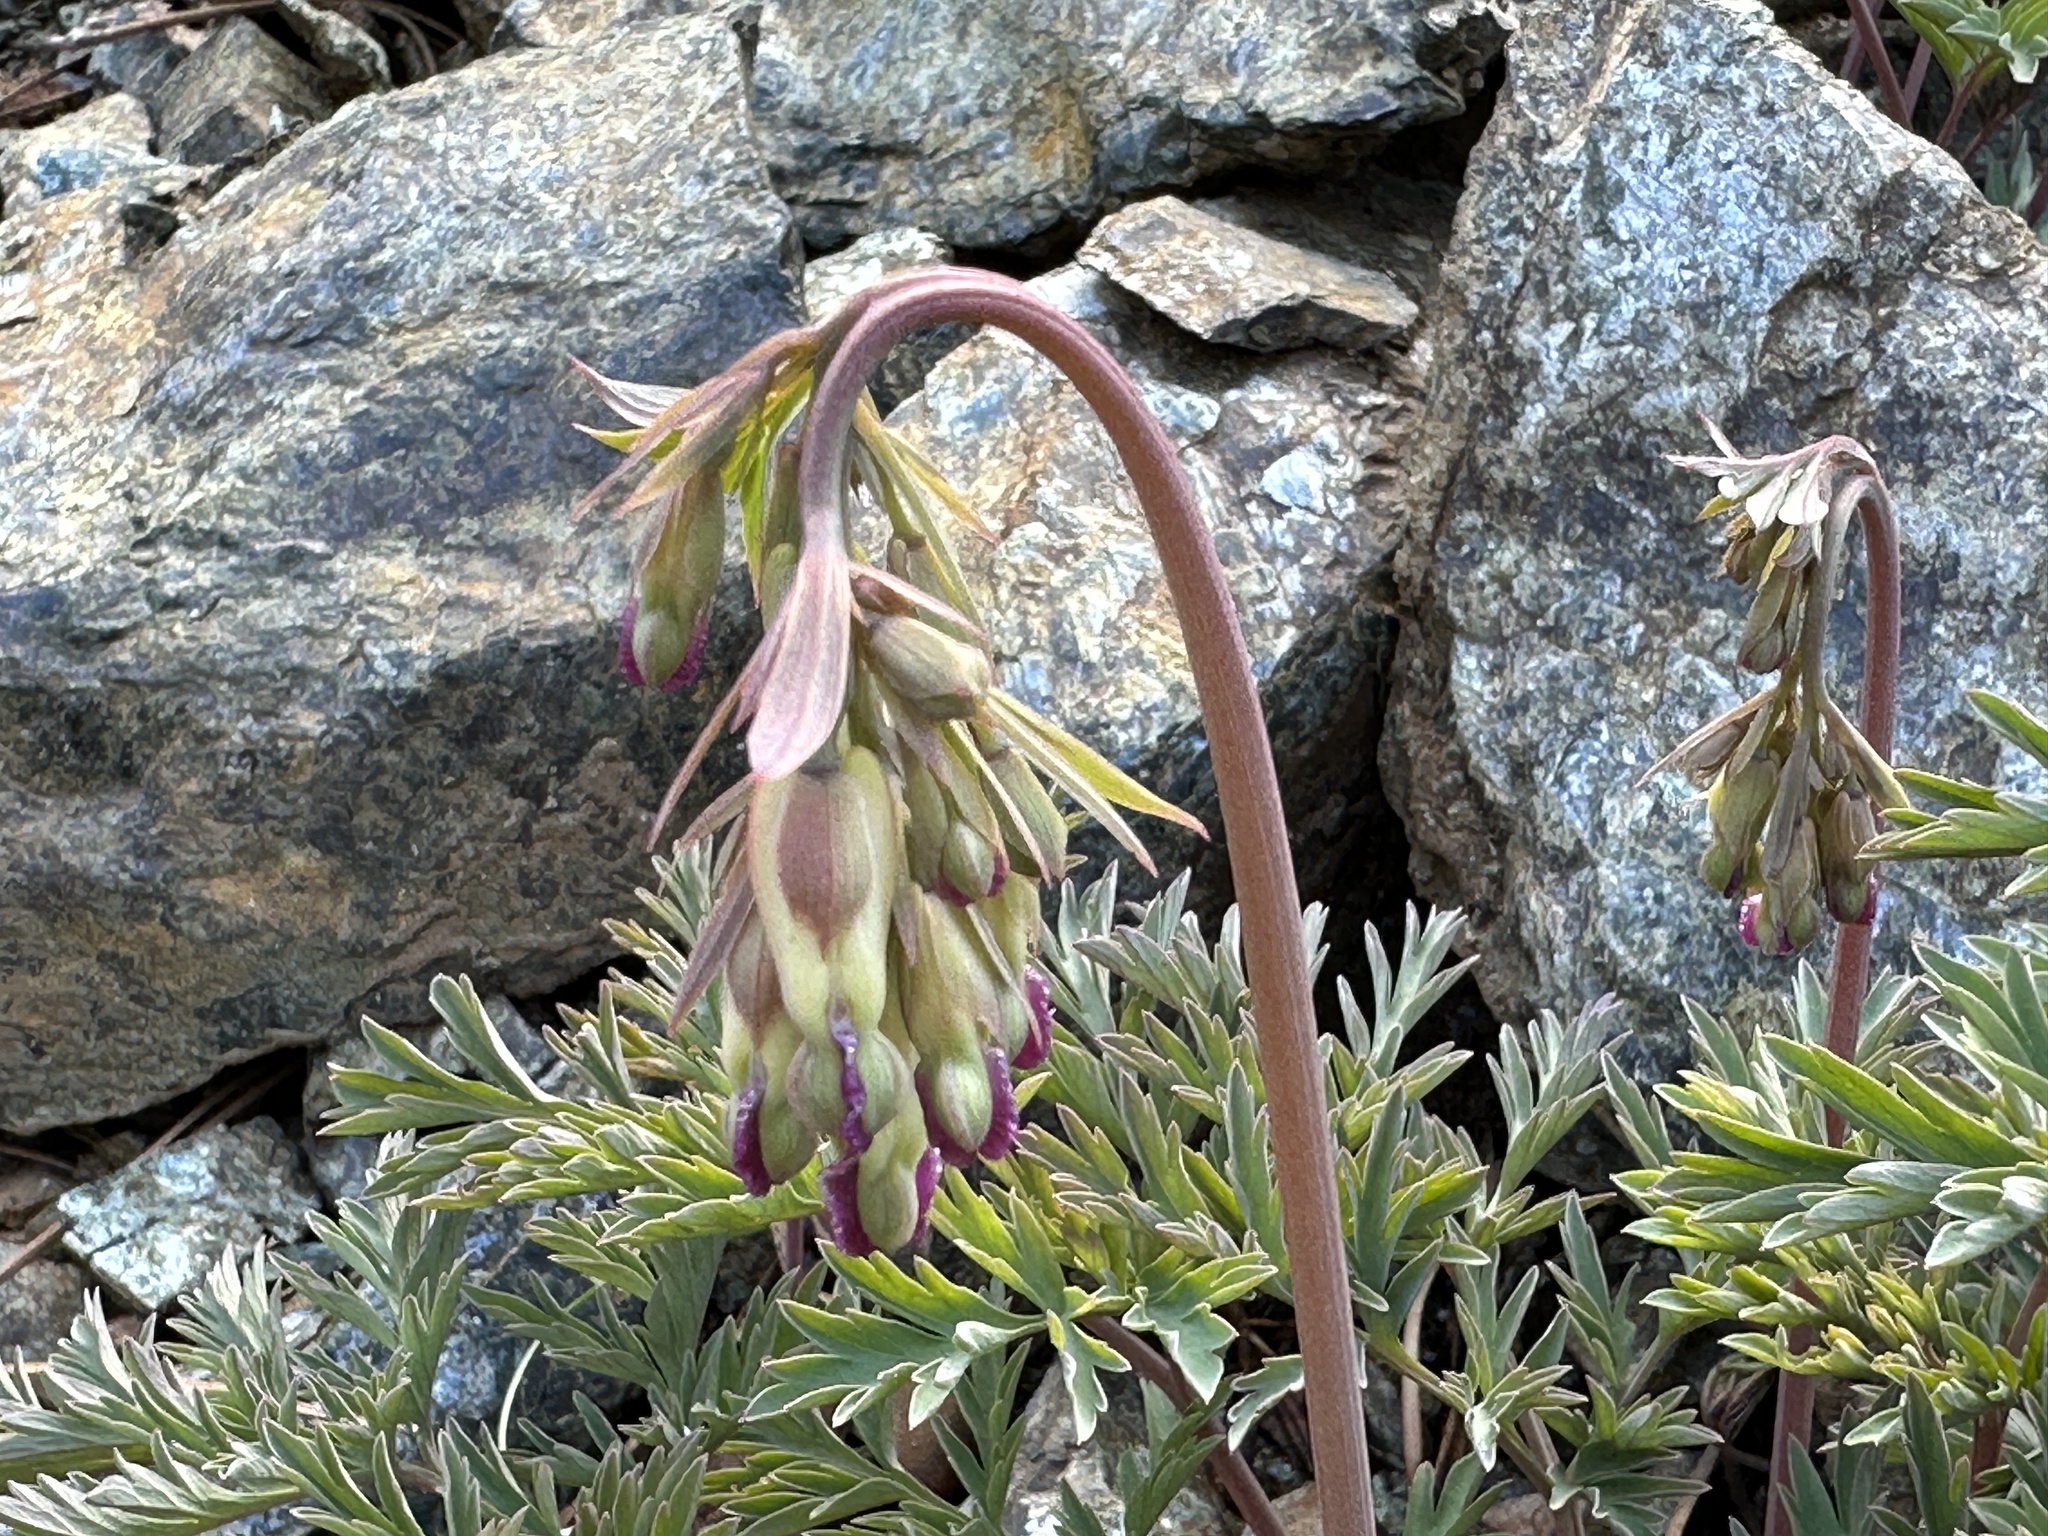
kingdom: Plantae
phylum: Tracheophyta
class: Magnoliopsida
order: Ranunculales
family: Papaveraceae
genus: Dicentra
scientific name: Dicentra formosa
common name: Bleeding-heart
